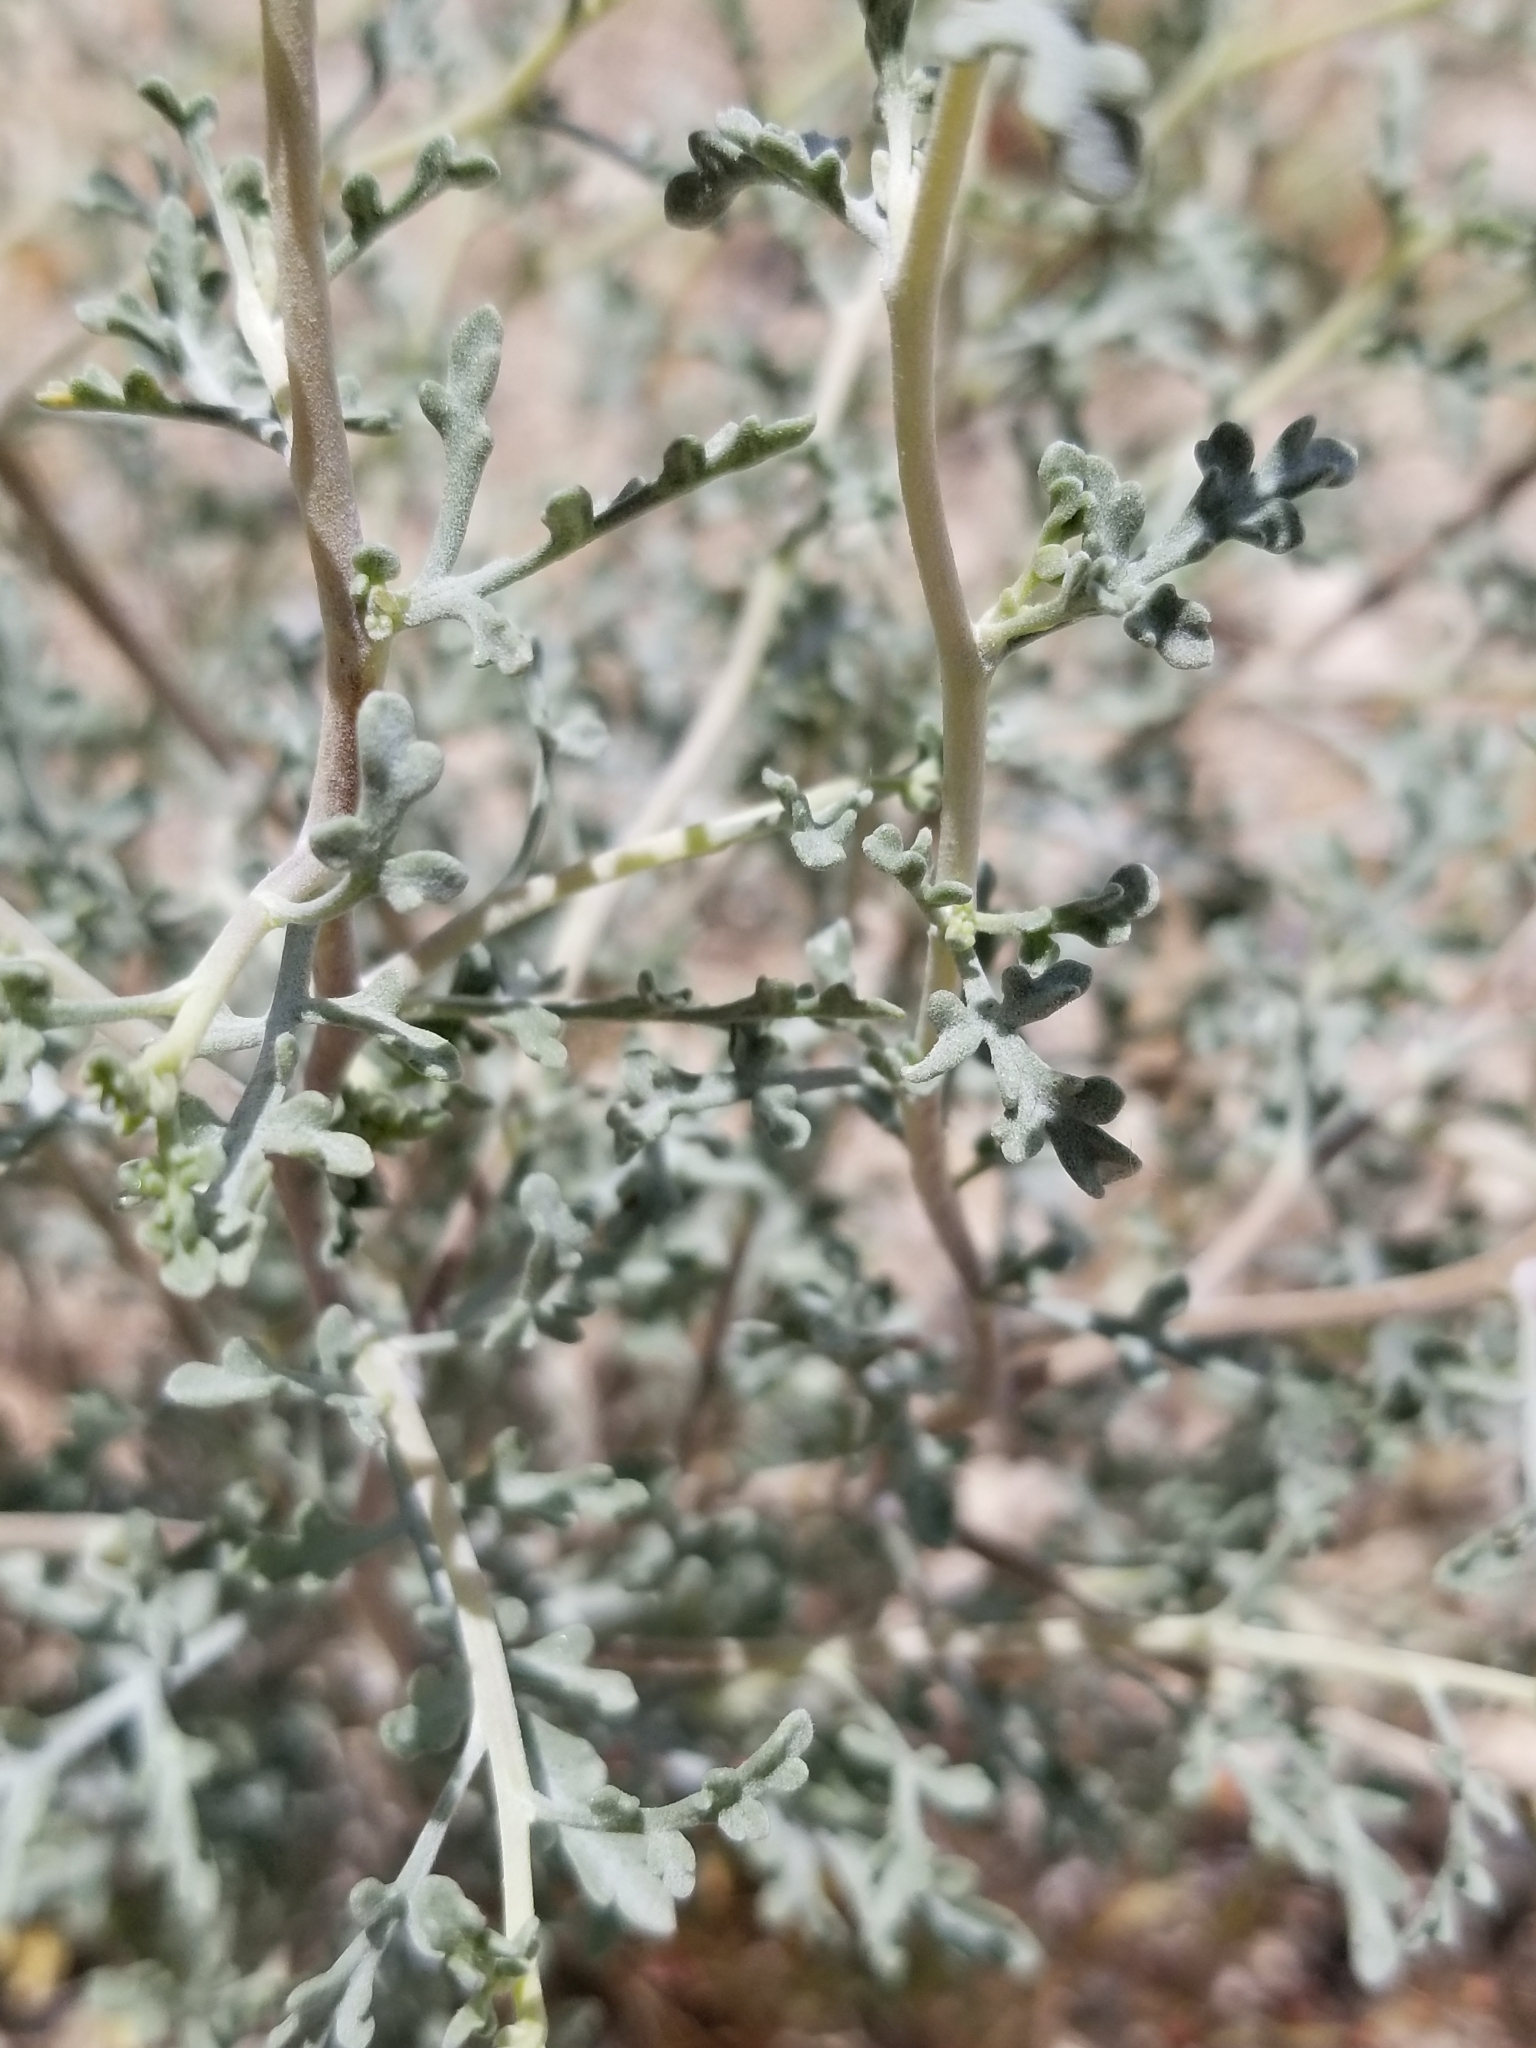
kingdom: Plantae
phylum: Tracheophyta
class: Magnoliopsida
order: Asterales
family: Asteraceae
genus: Ambrosia
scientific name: Ambrosia dumosa
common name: Bur-sage
